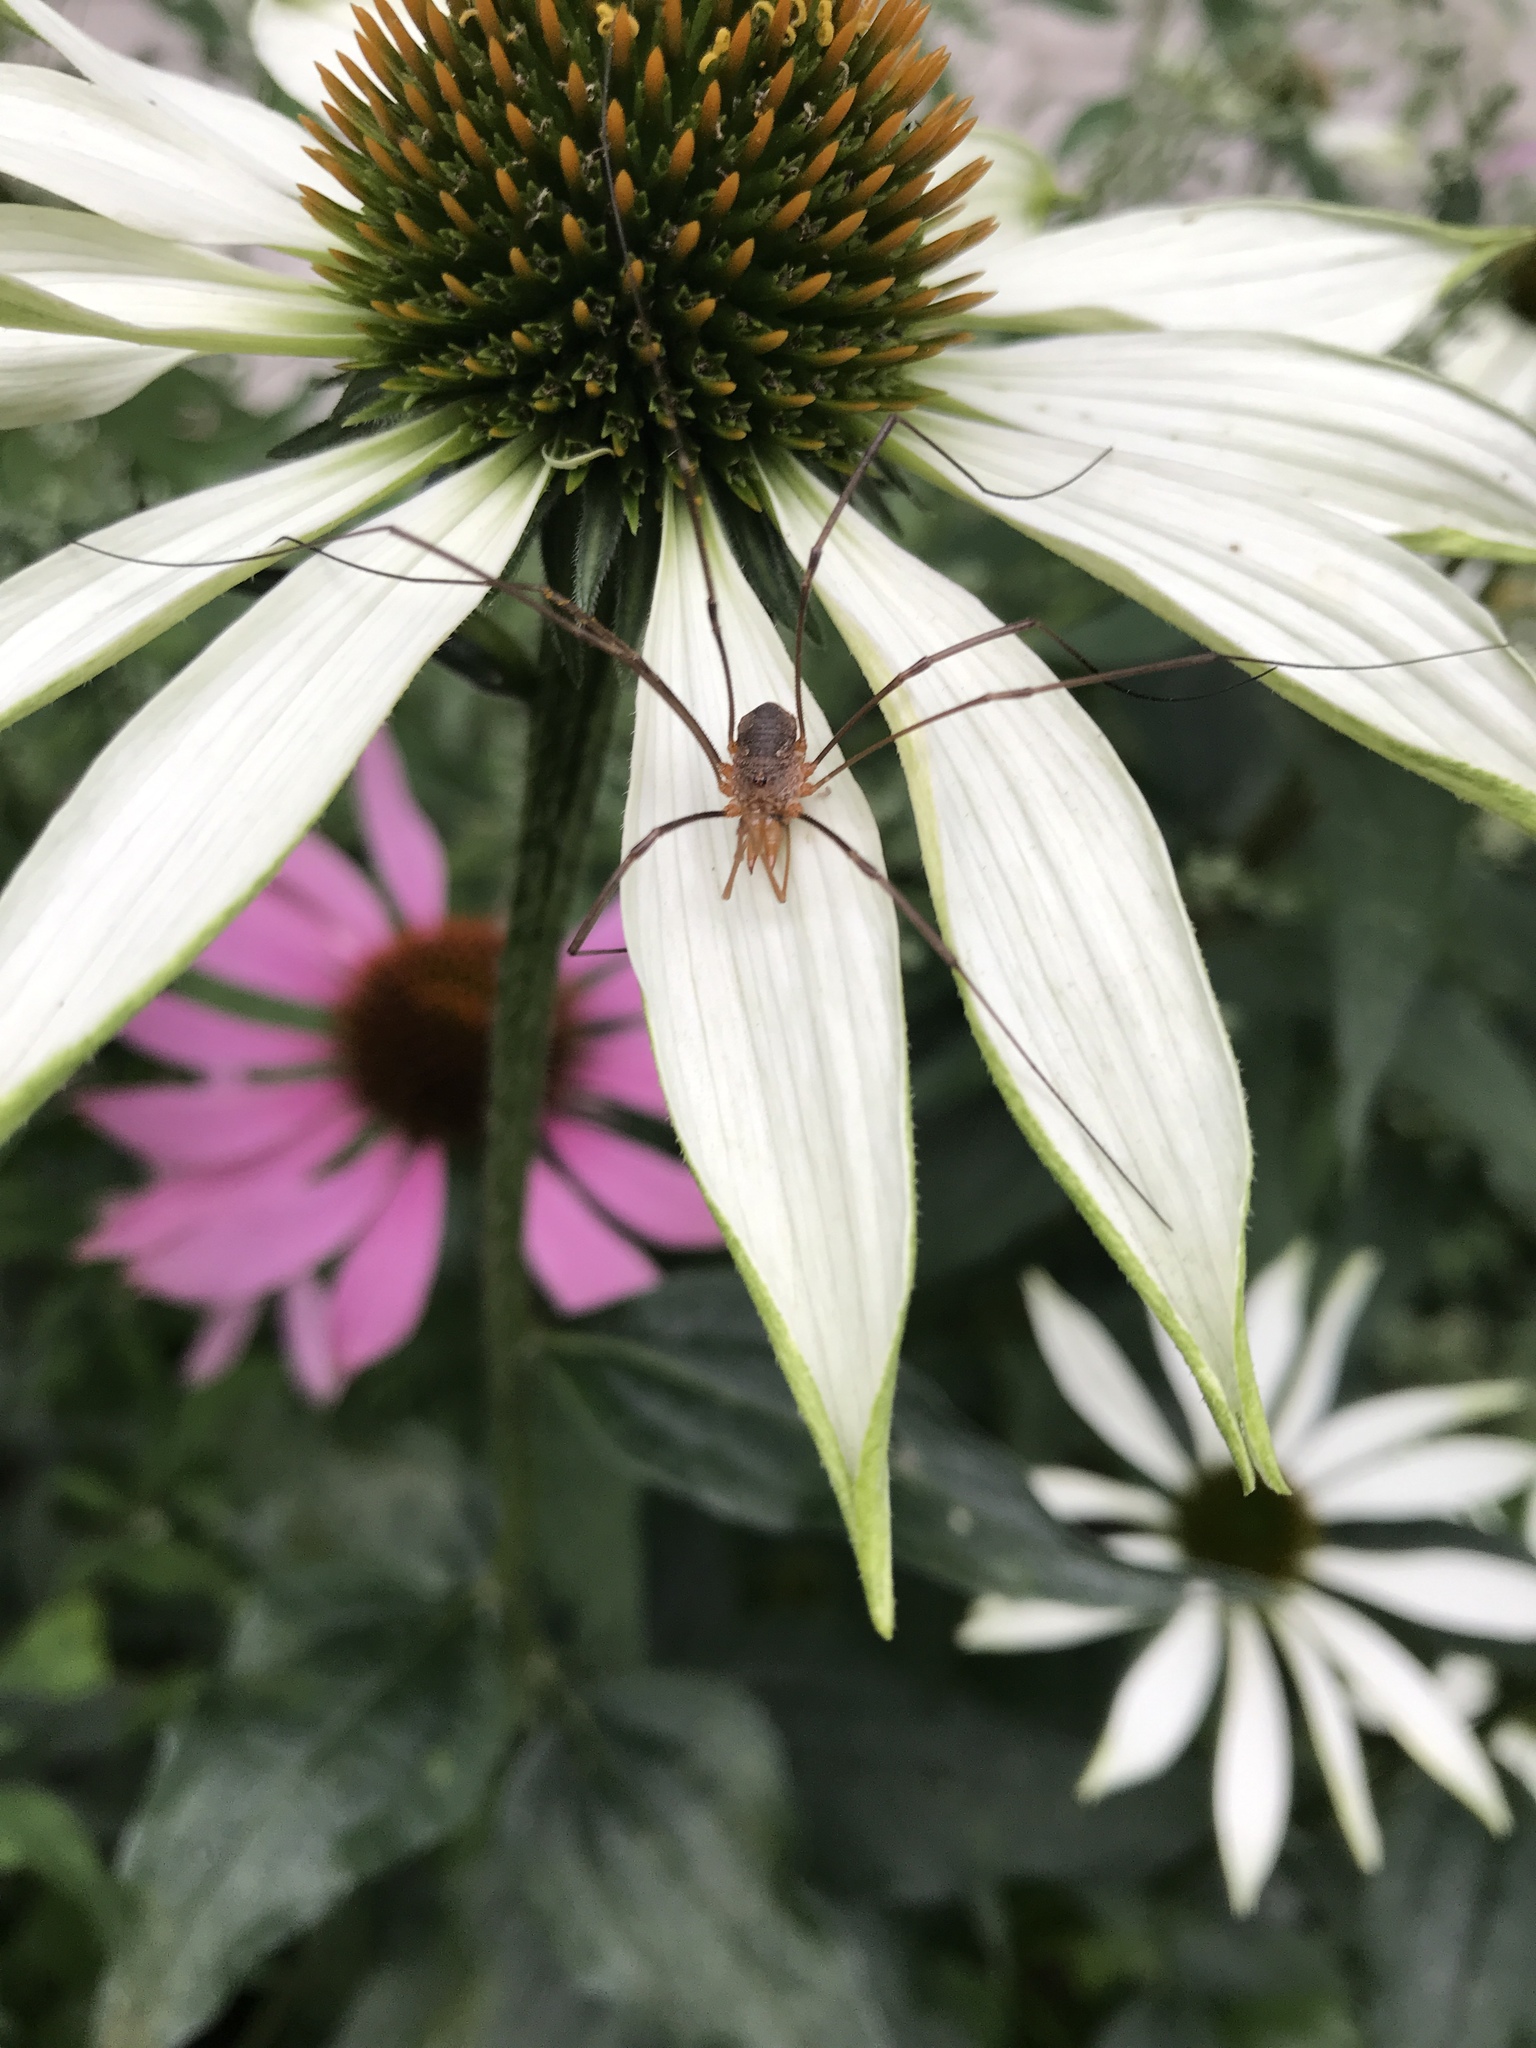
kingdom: Animalia
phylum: Arthropoda
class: Arachnida
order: Opiliones
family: Phalangiidae
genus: Phalangium
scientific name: Phalangium opilio
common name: Daddy longleg
